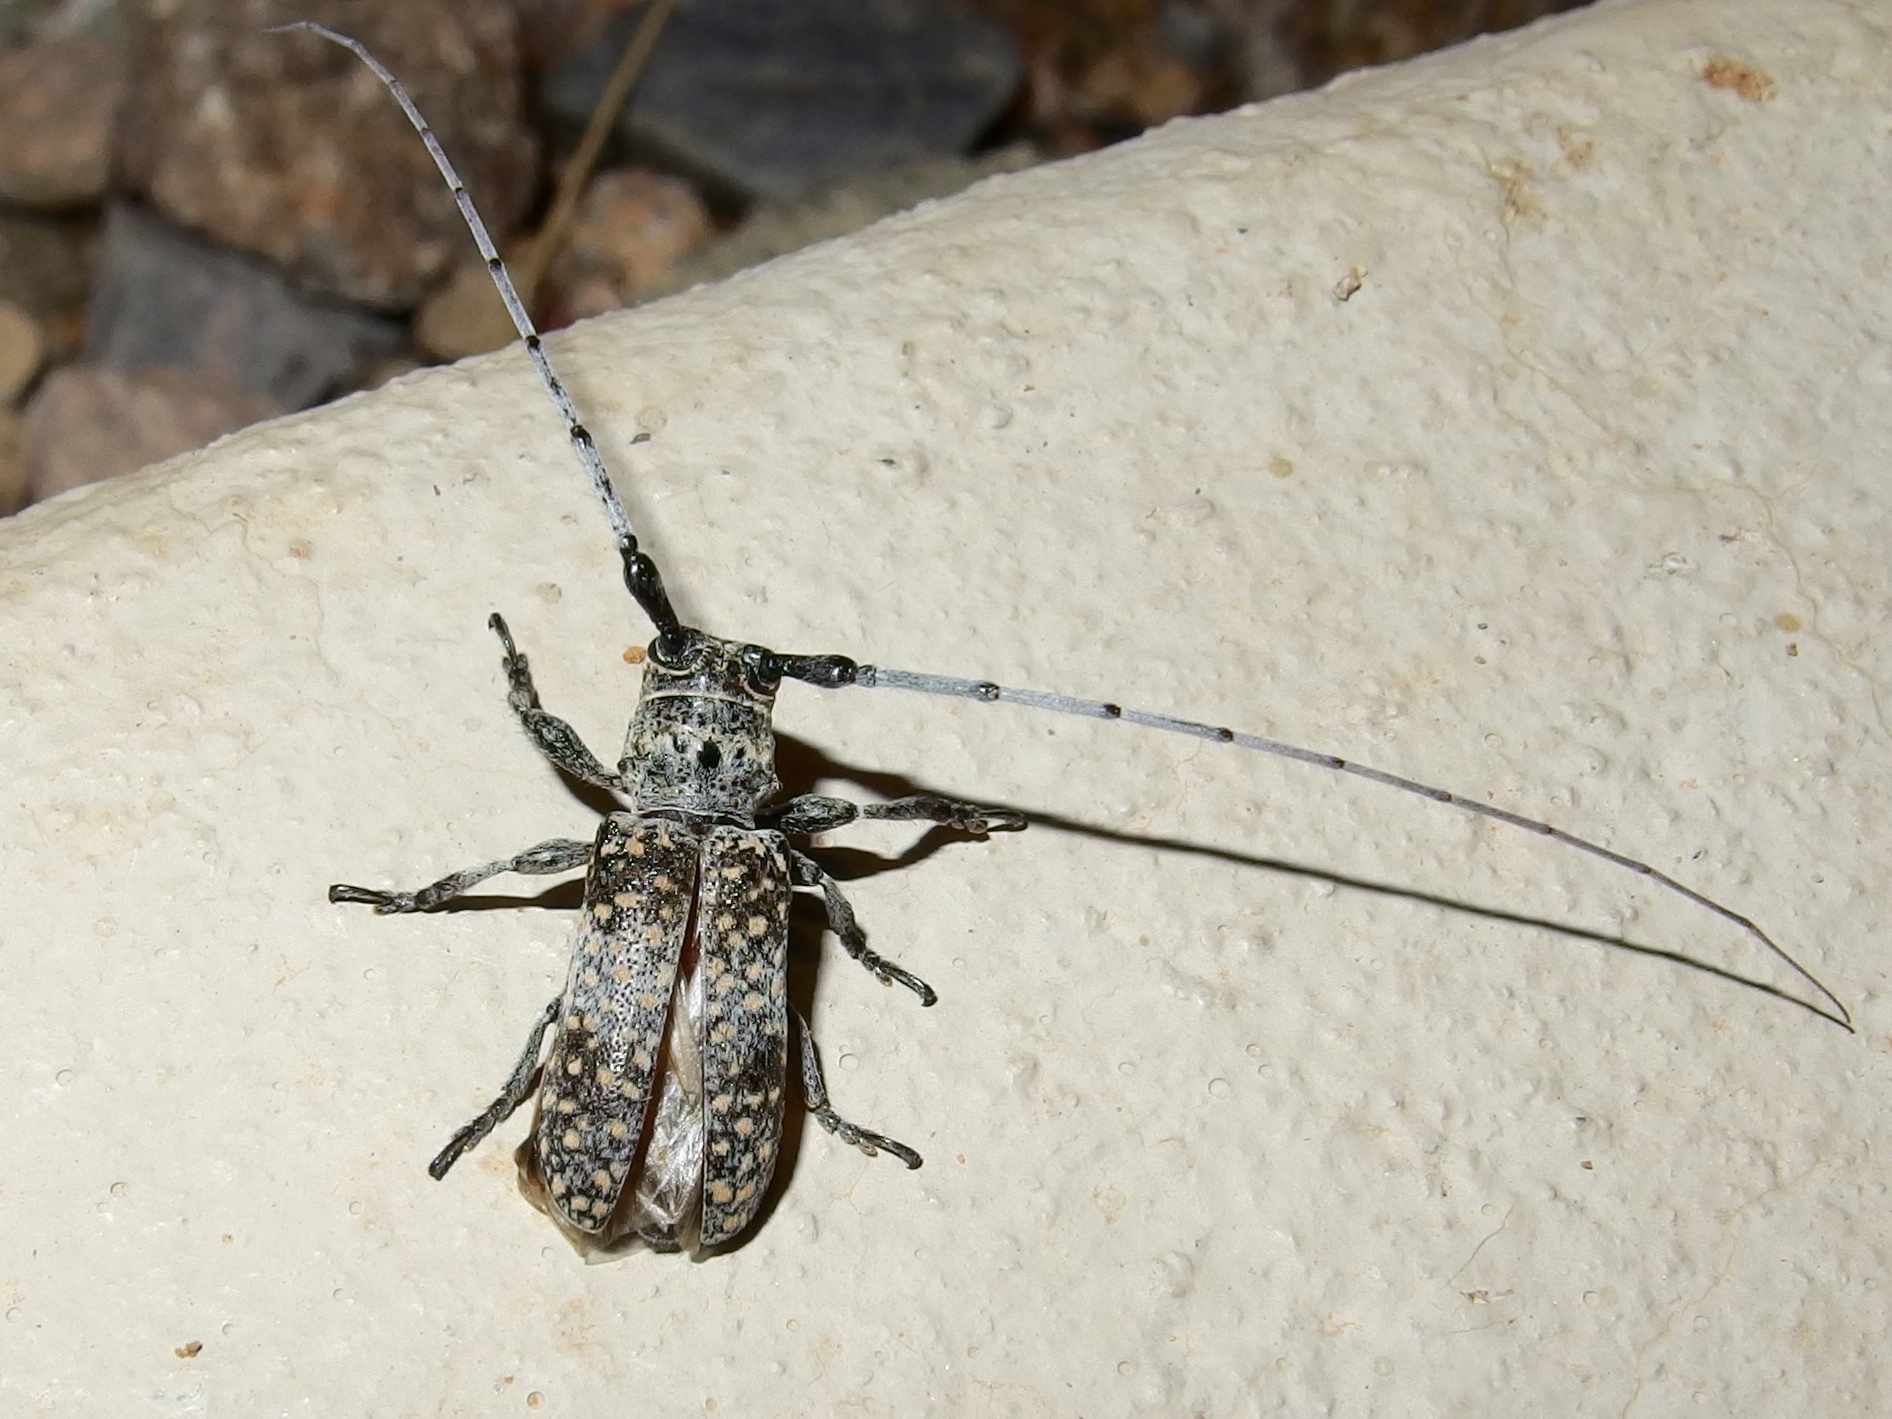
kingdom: Animalia
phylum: Arthropoda
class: Insecta
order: Coleoptera
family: Cerambycidae
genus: Oncideres
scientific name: Oncideres rhodosticta
